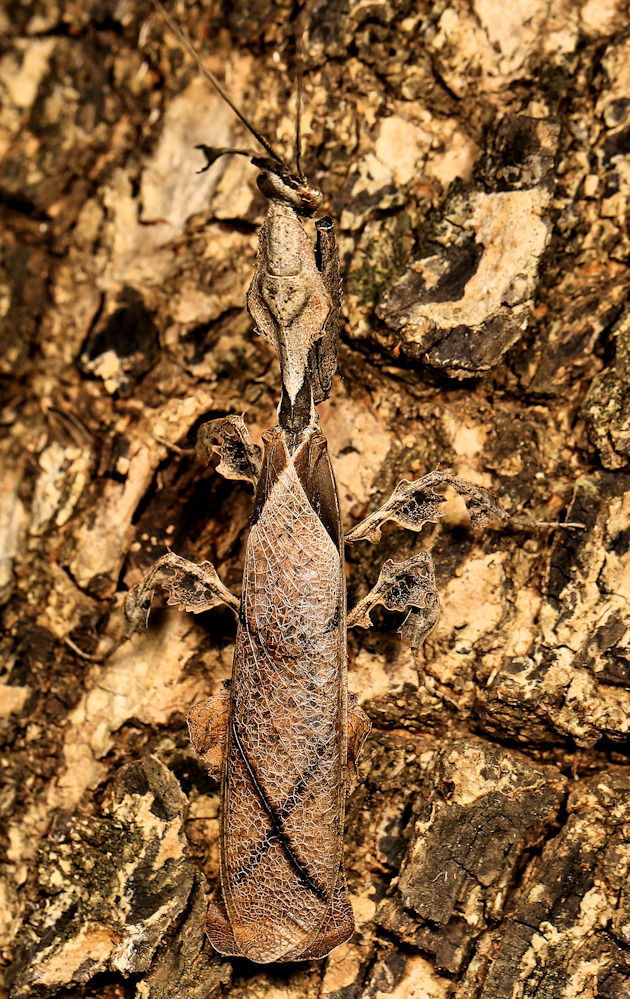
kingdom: Animalia
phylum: Arthropoda
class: Insecta
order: Mantodea
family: Hymenopodidae
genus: Phyllocrania
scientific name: Phyllocrania paradoxa
